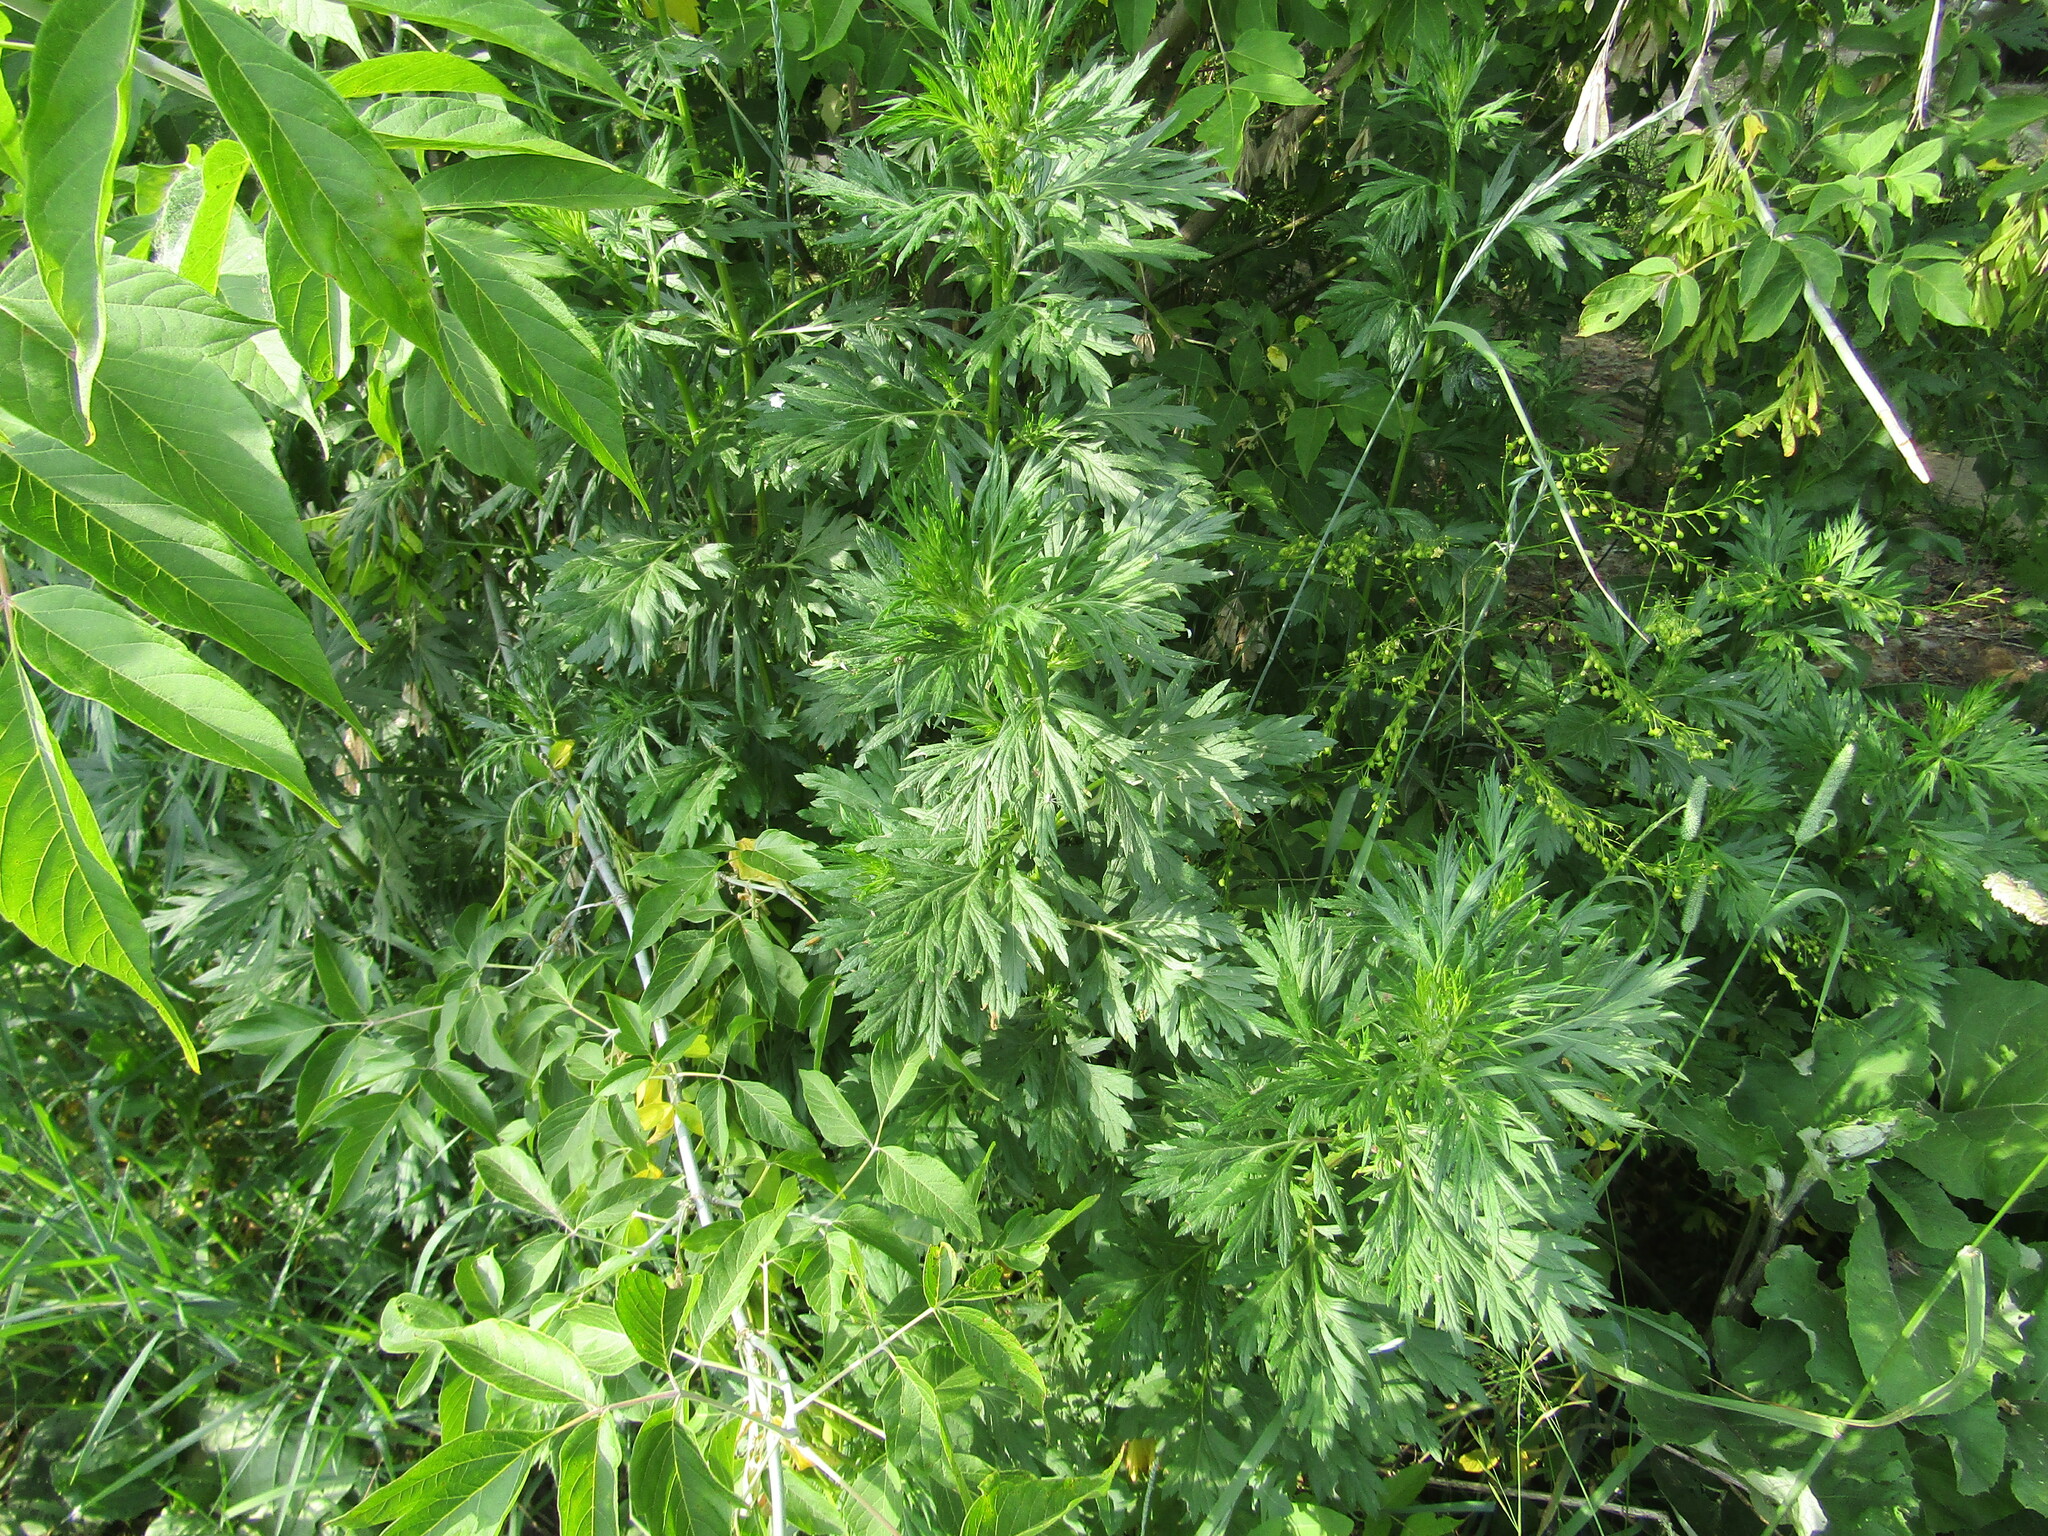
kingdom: Plantae
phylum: Tracheophyta
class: Magnoliopsida
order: Asterales
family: Asteraceae
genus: Artemisia
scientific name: Artemisia vulgaris
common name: Mugwort
